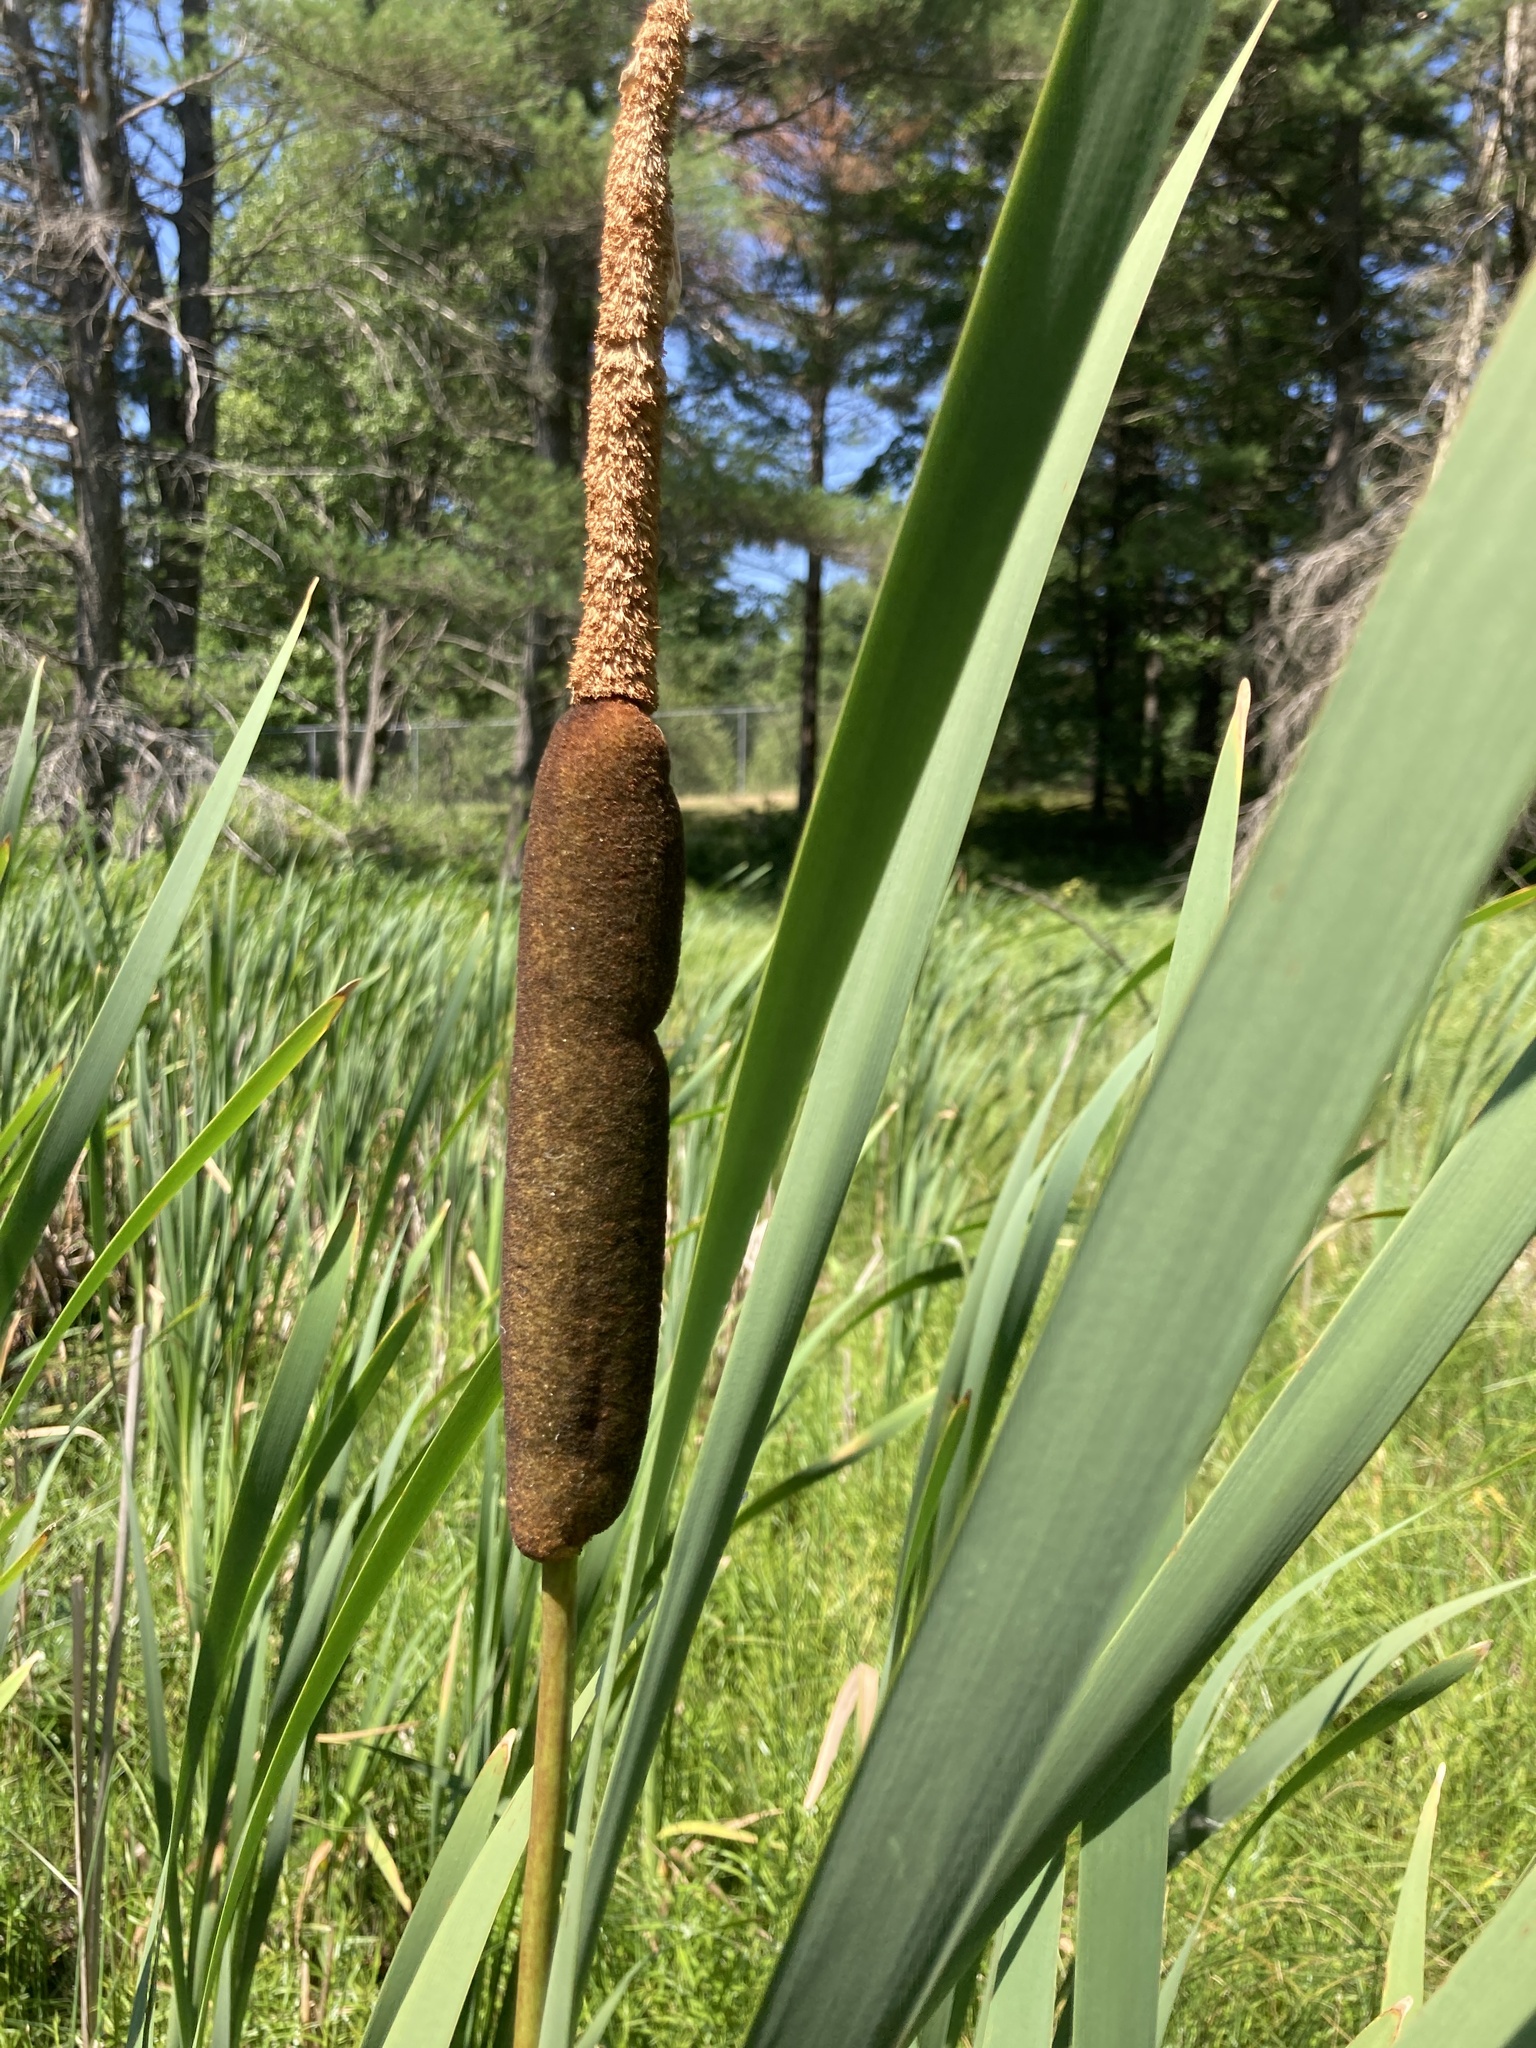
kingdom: Plantae
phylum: Tracheophyta
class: Liliopsida
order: Poales
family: Typhaceae
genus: Typha
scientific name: Typha latifolia
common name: Broadleaf cattail
